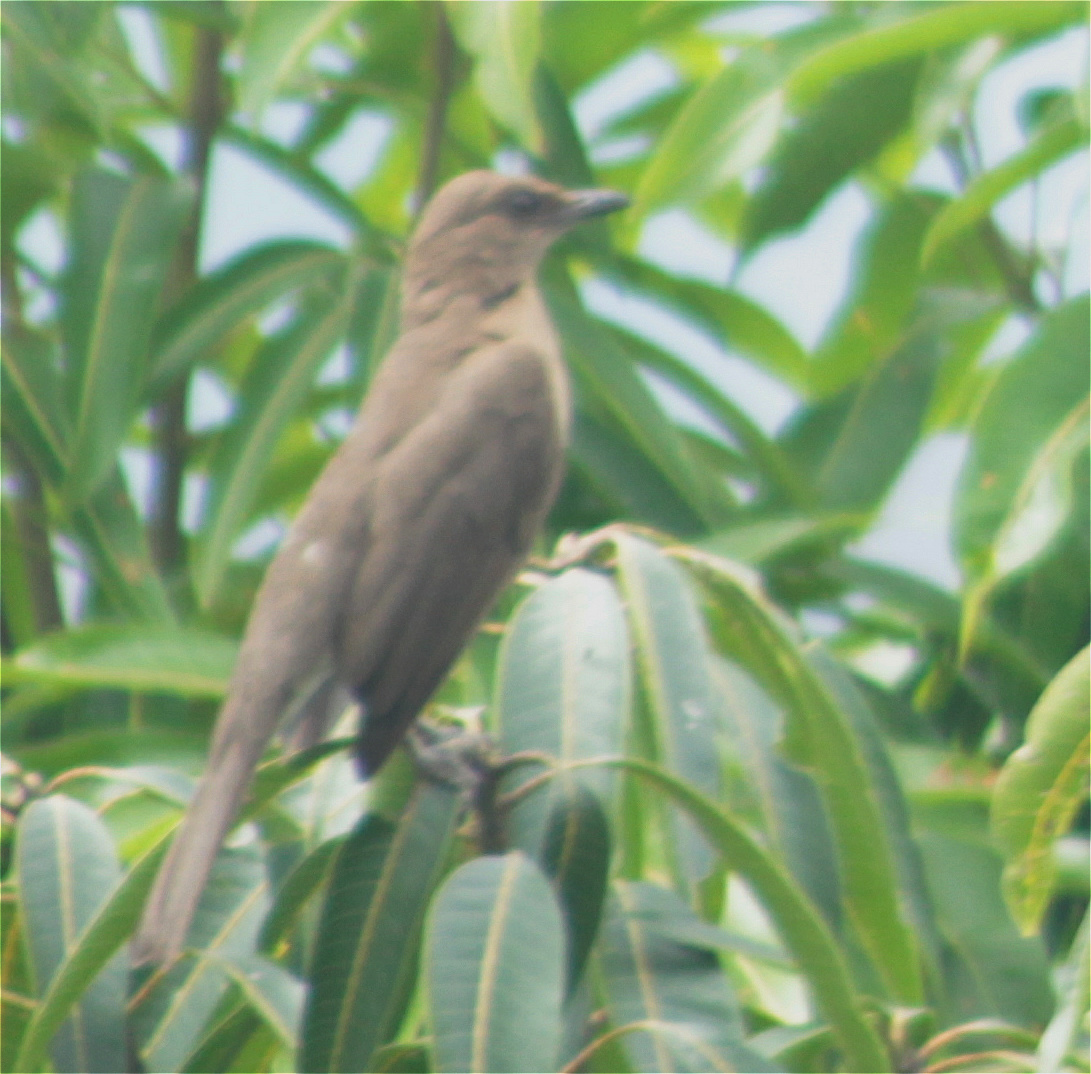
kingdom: Animalia
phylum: Chordata
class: Aves
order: Passeriformes
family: Turdidae
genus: Turdus
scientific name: Turdus ignobilis
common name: Black-billed thrush
